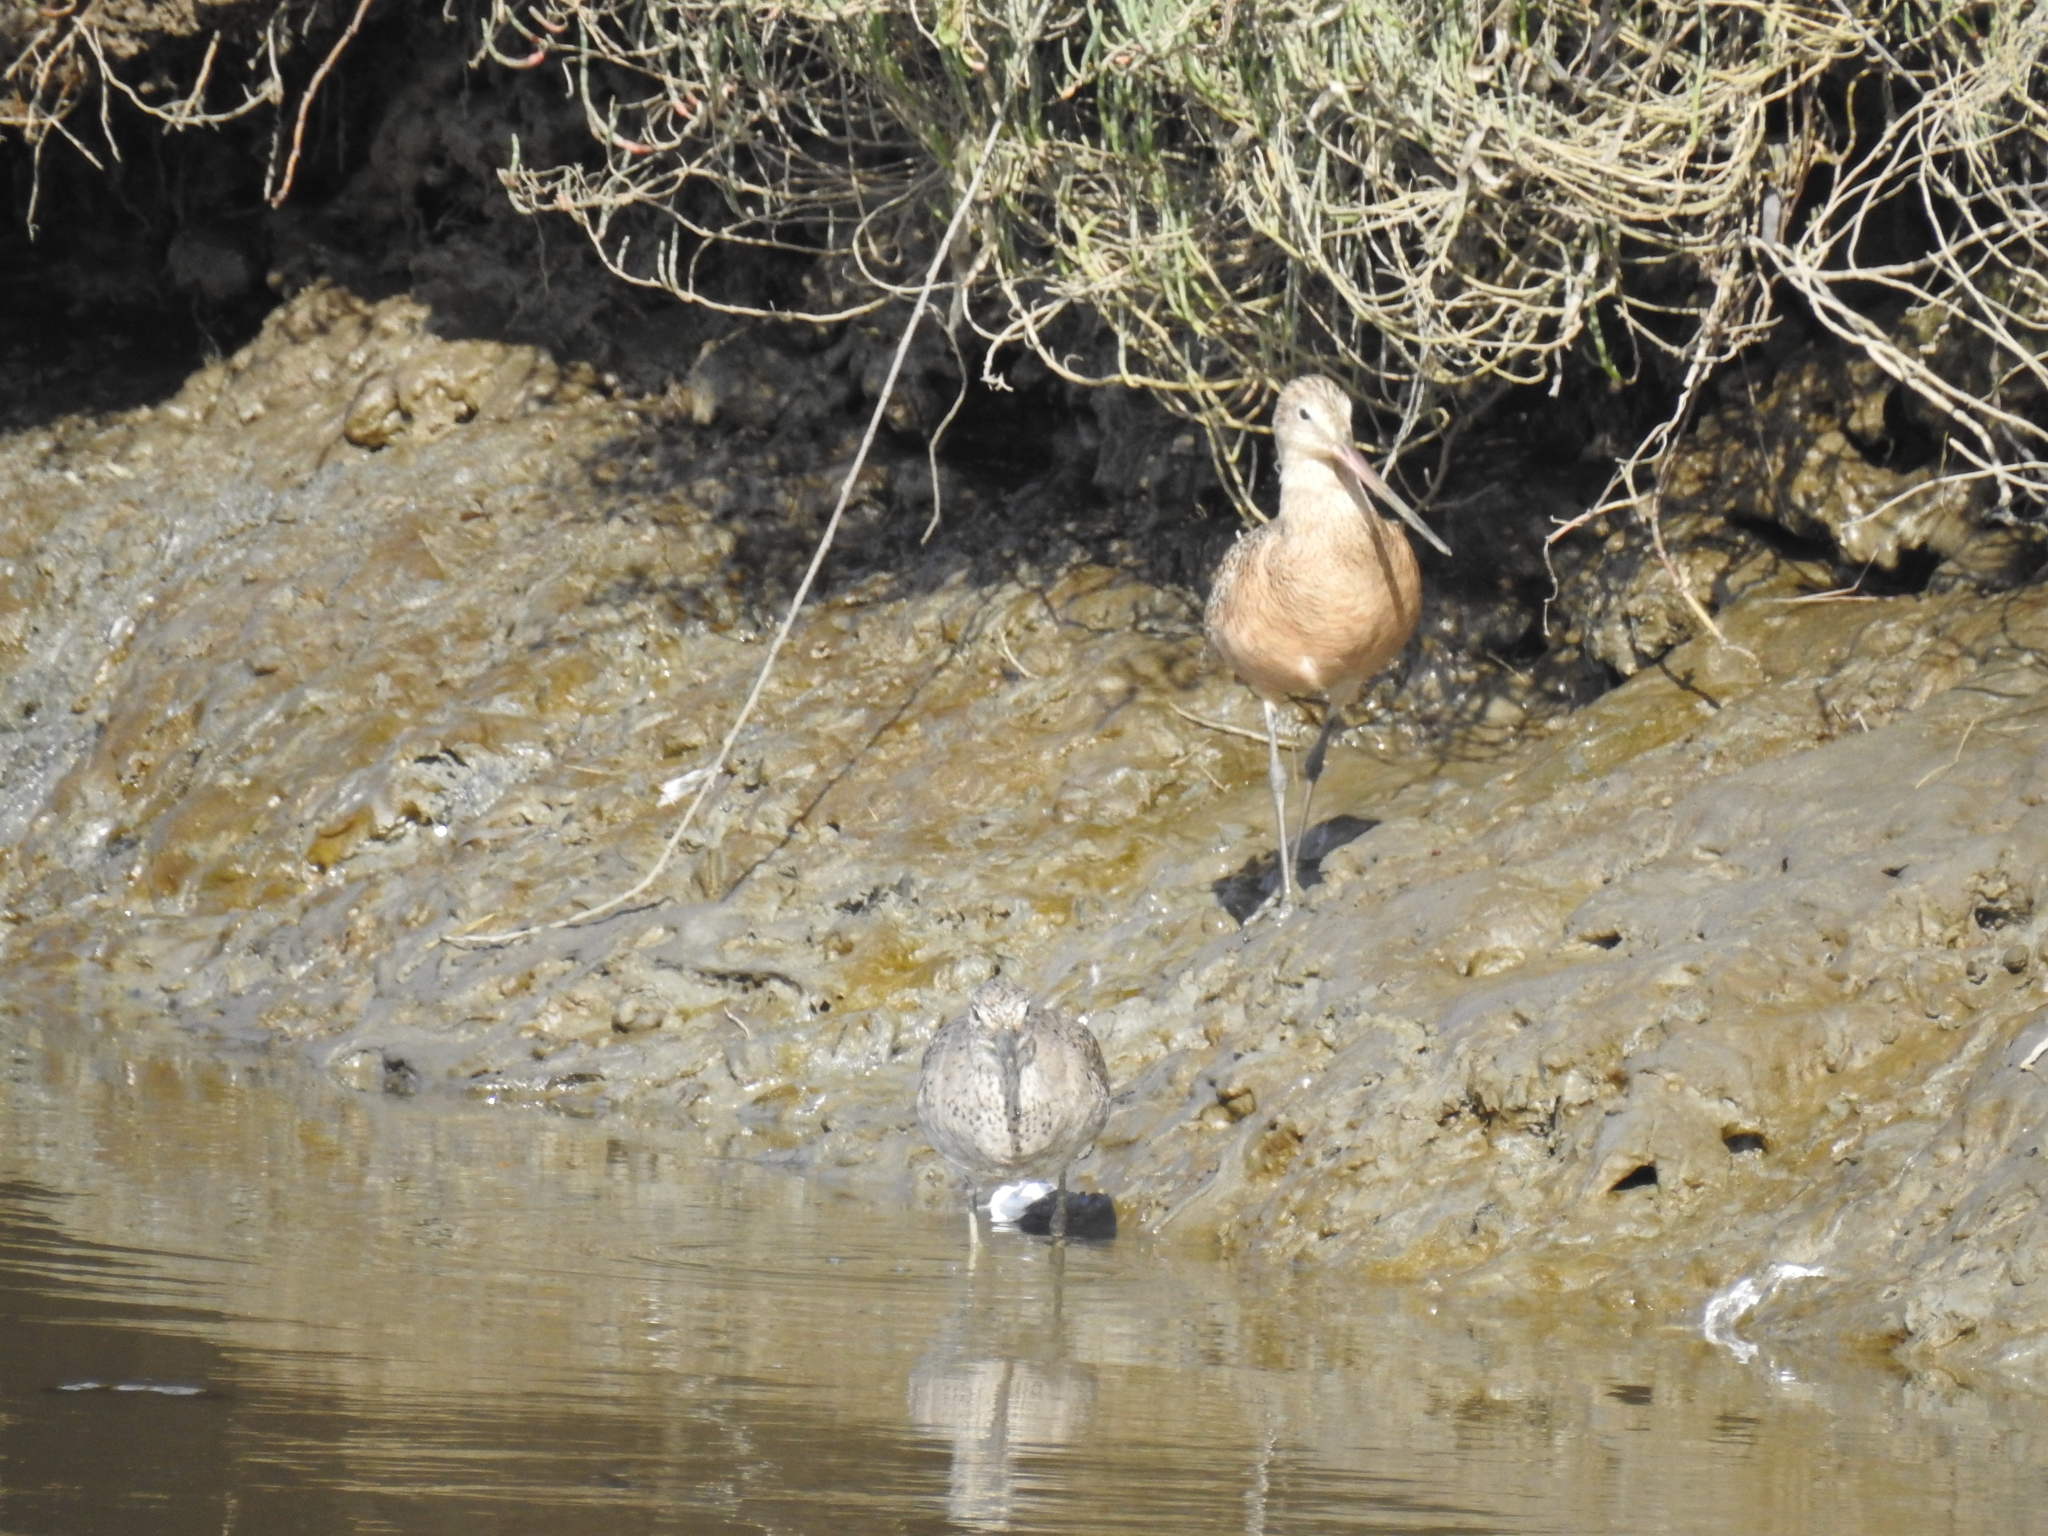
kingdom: Animalia
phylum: Chordata
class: Aves
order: Charadriiformes
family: Scolopacidae
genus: Limosa
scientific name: Limosa fedoa
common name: Marbled godwit
